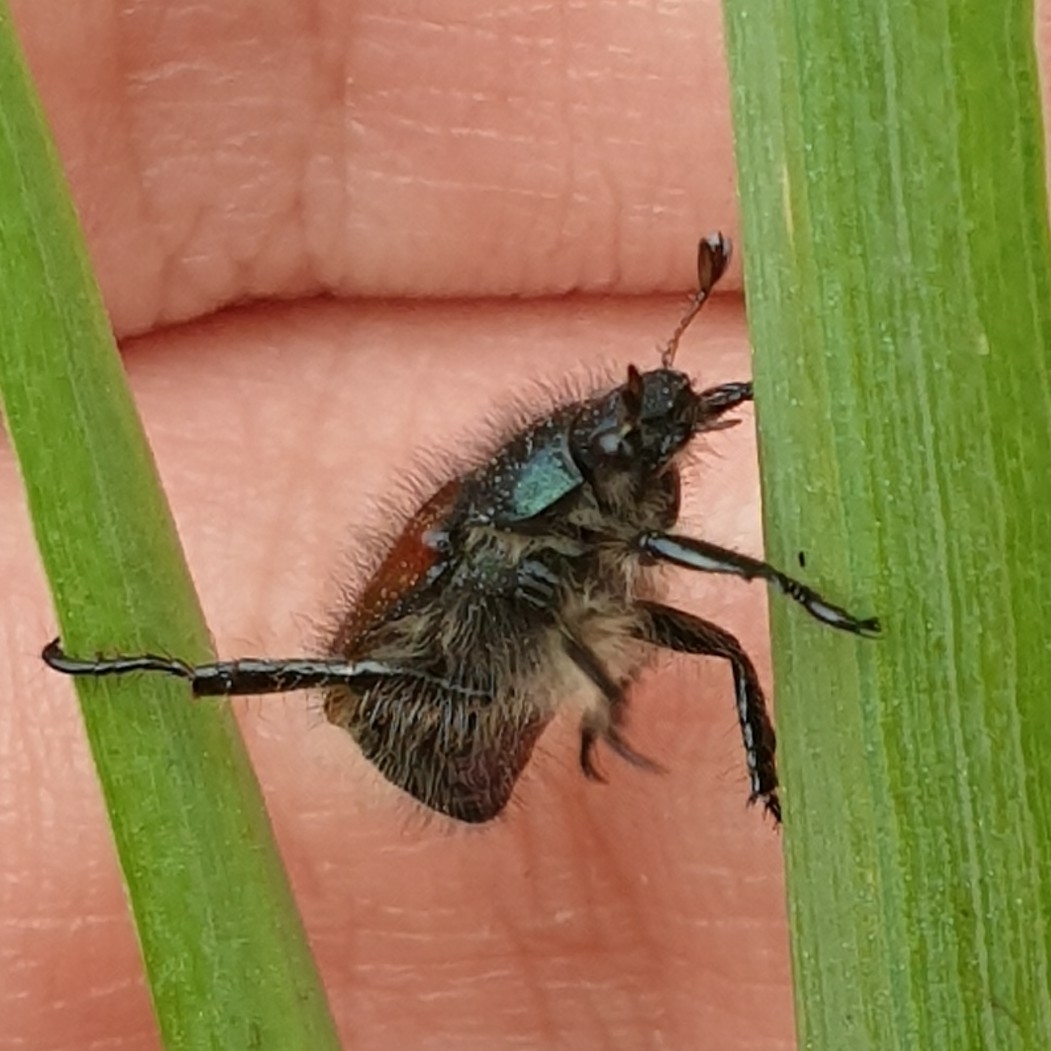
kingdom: Animalia
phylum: Arthropoda
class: Insecta
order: Coleoptera
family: Scarabaeidae
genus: Phyllopertha
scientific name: Phyllopertha horticola
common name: Garden chafer
